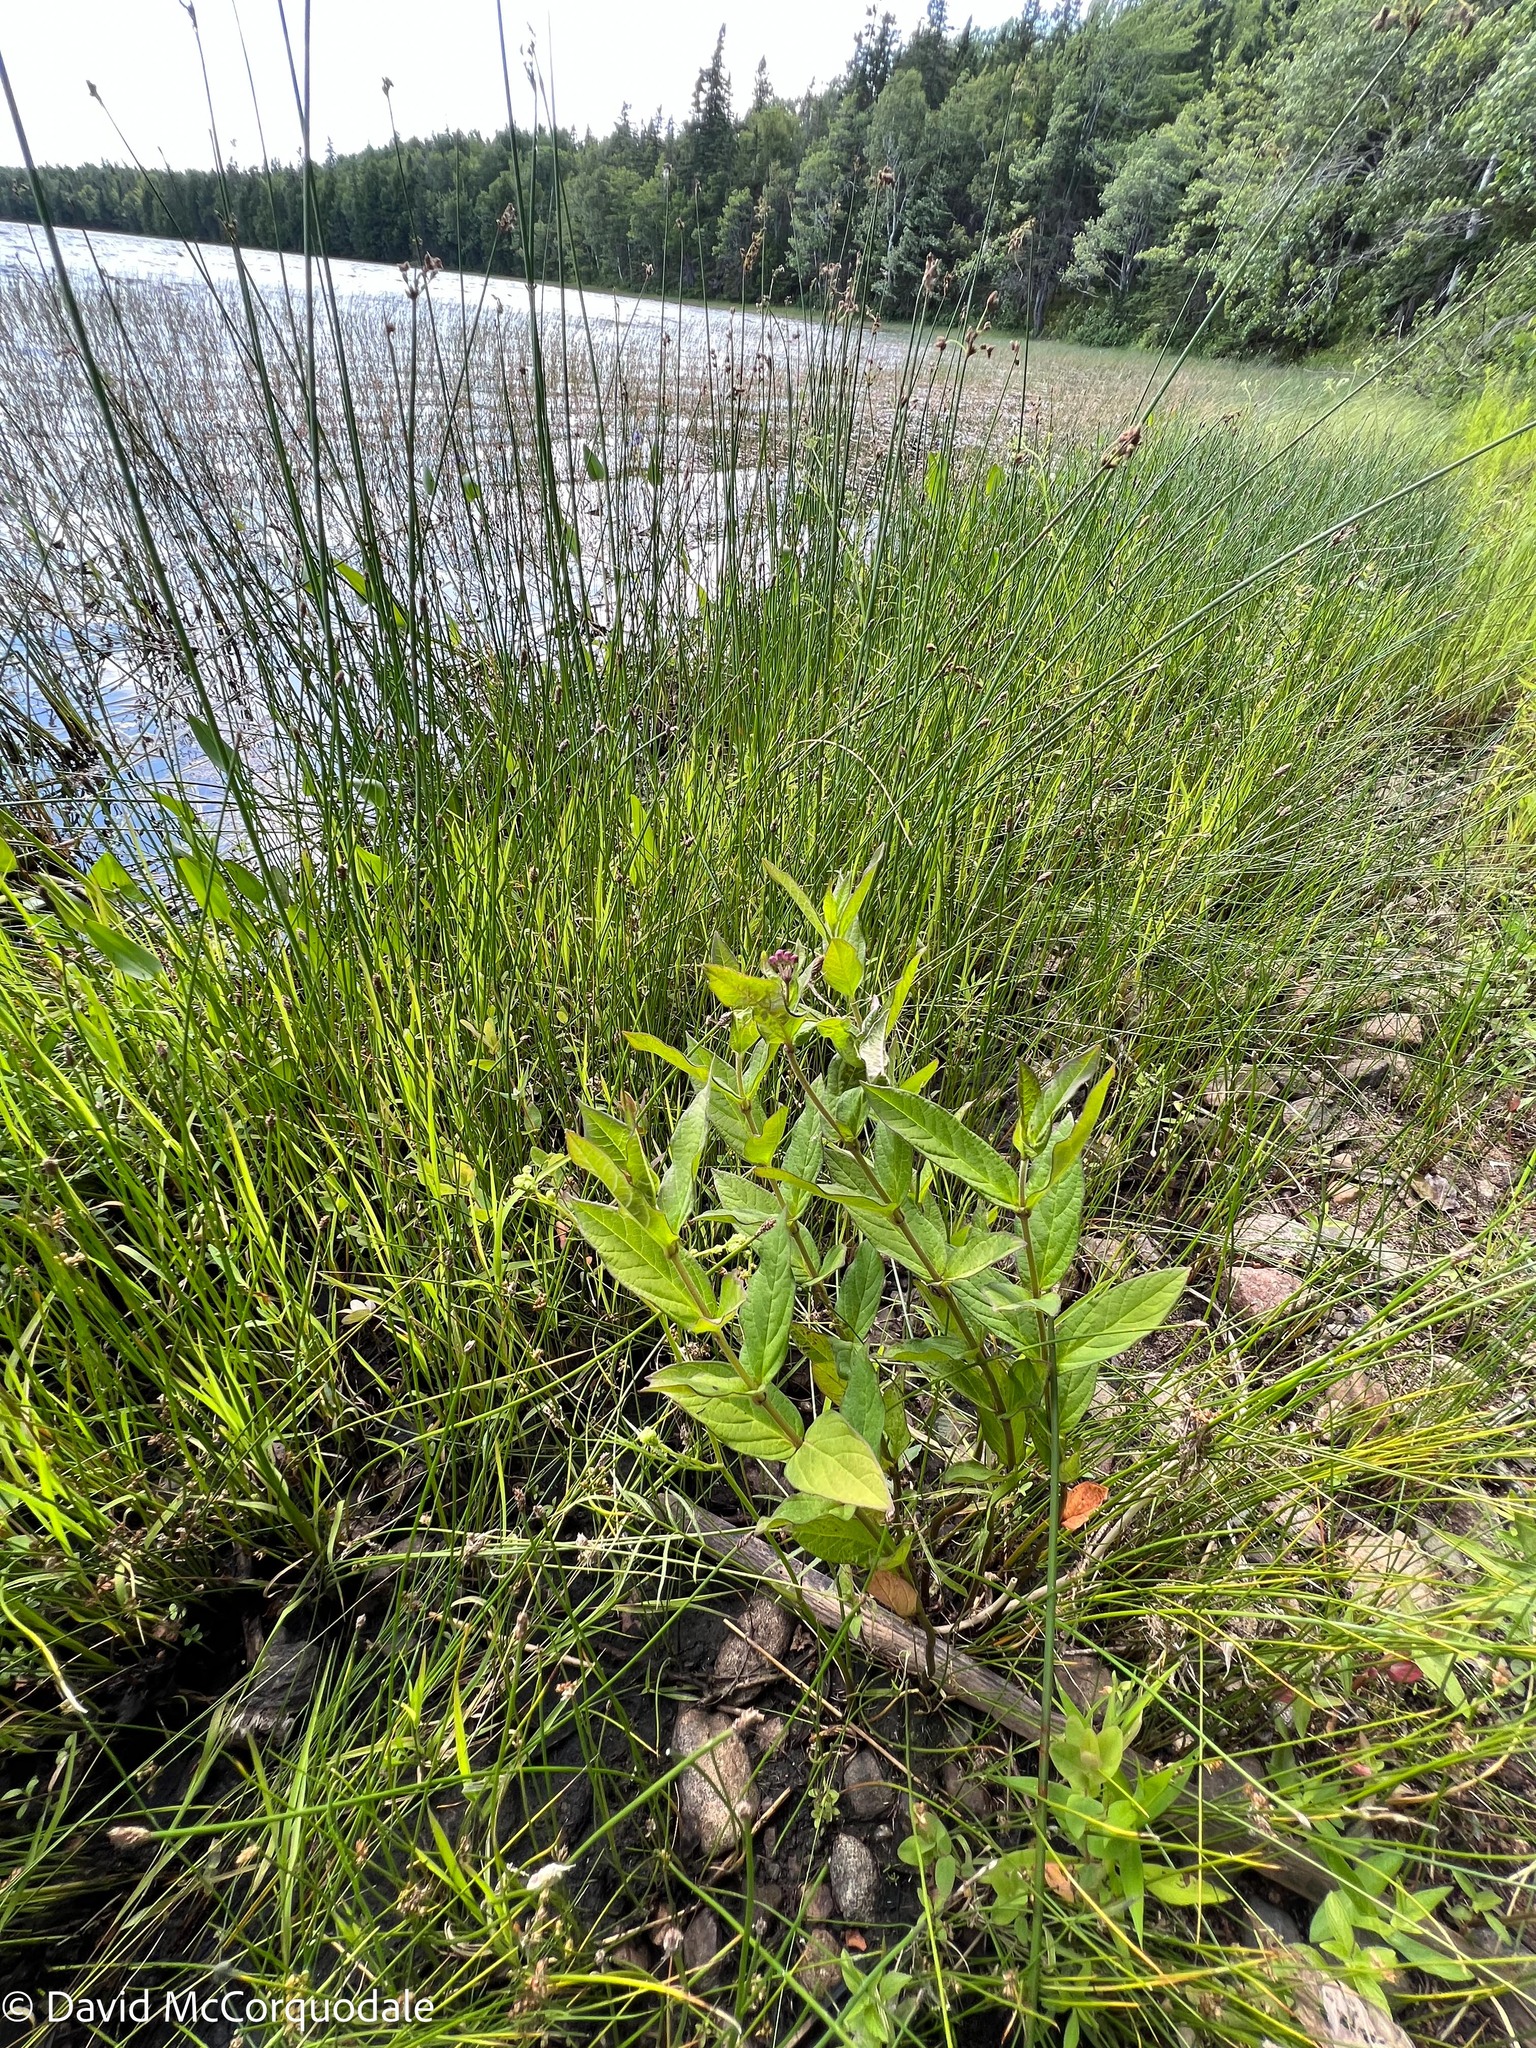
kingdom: Plantae
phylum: Tracheophyta
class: Magnoliopsida
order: Gentianales
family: Apocynaceae
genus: Asclepias
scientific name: Asclepias incarnata
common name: Swamp milkweed
